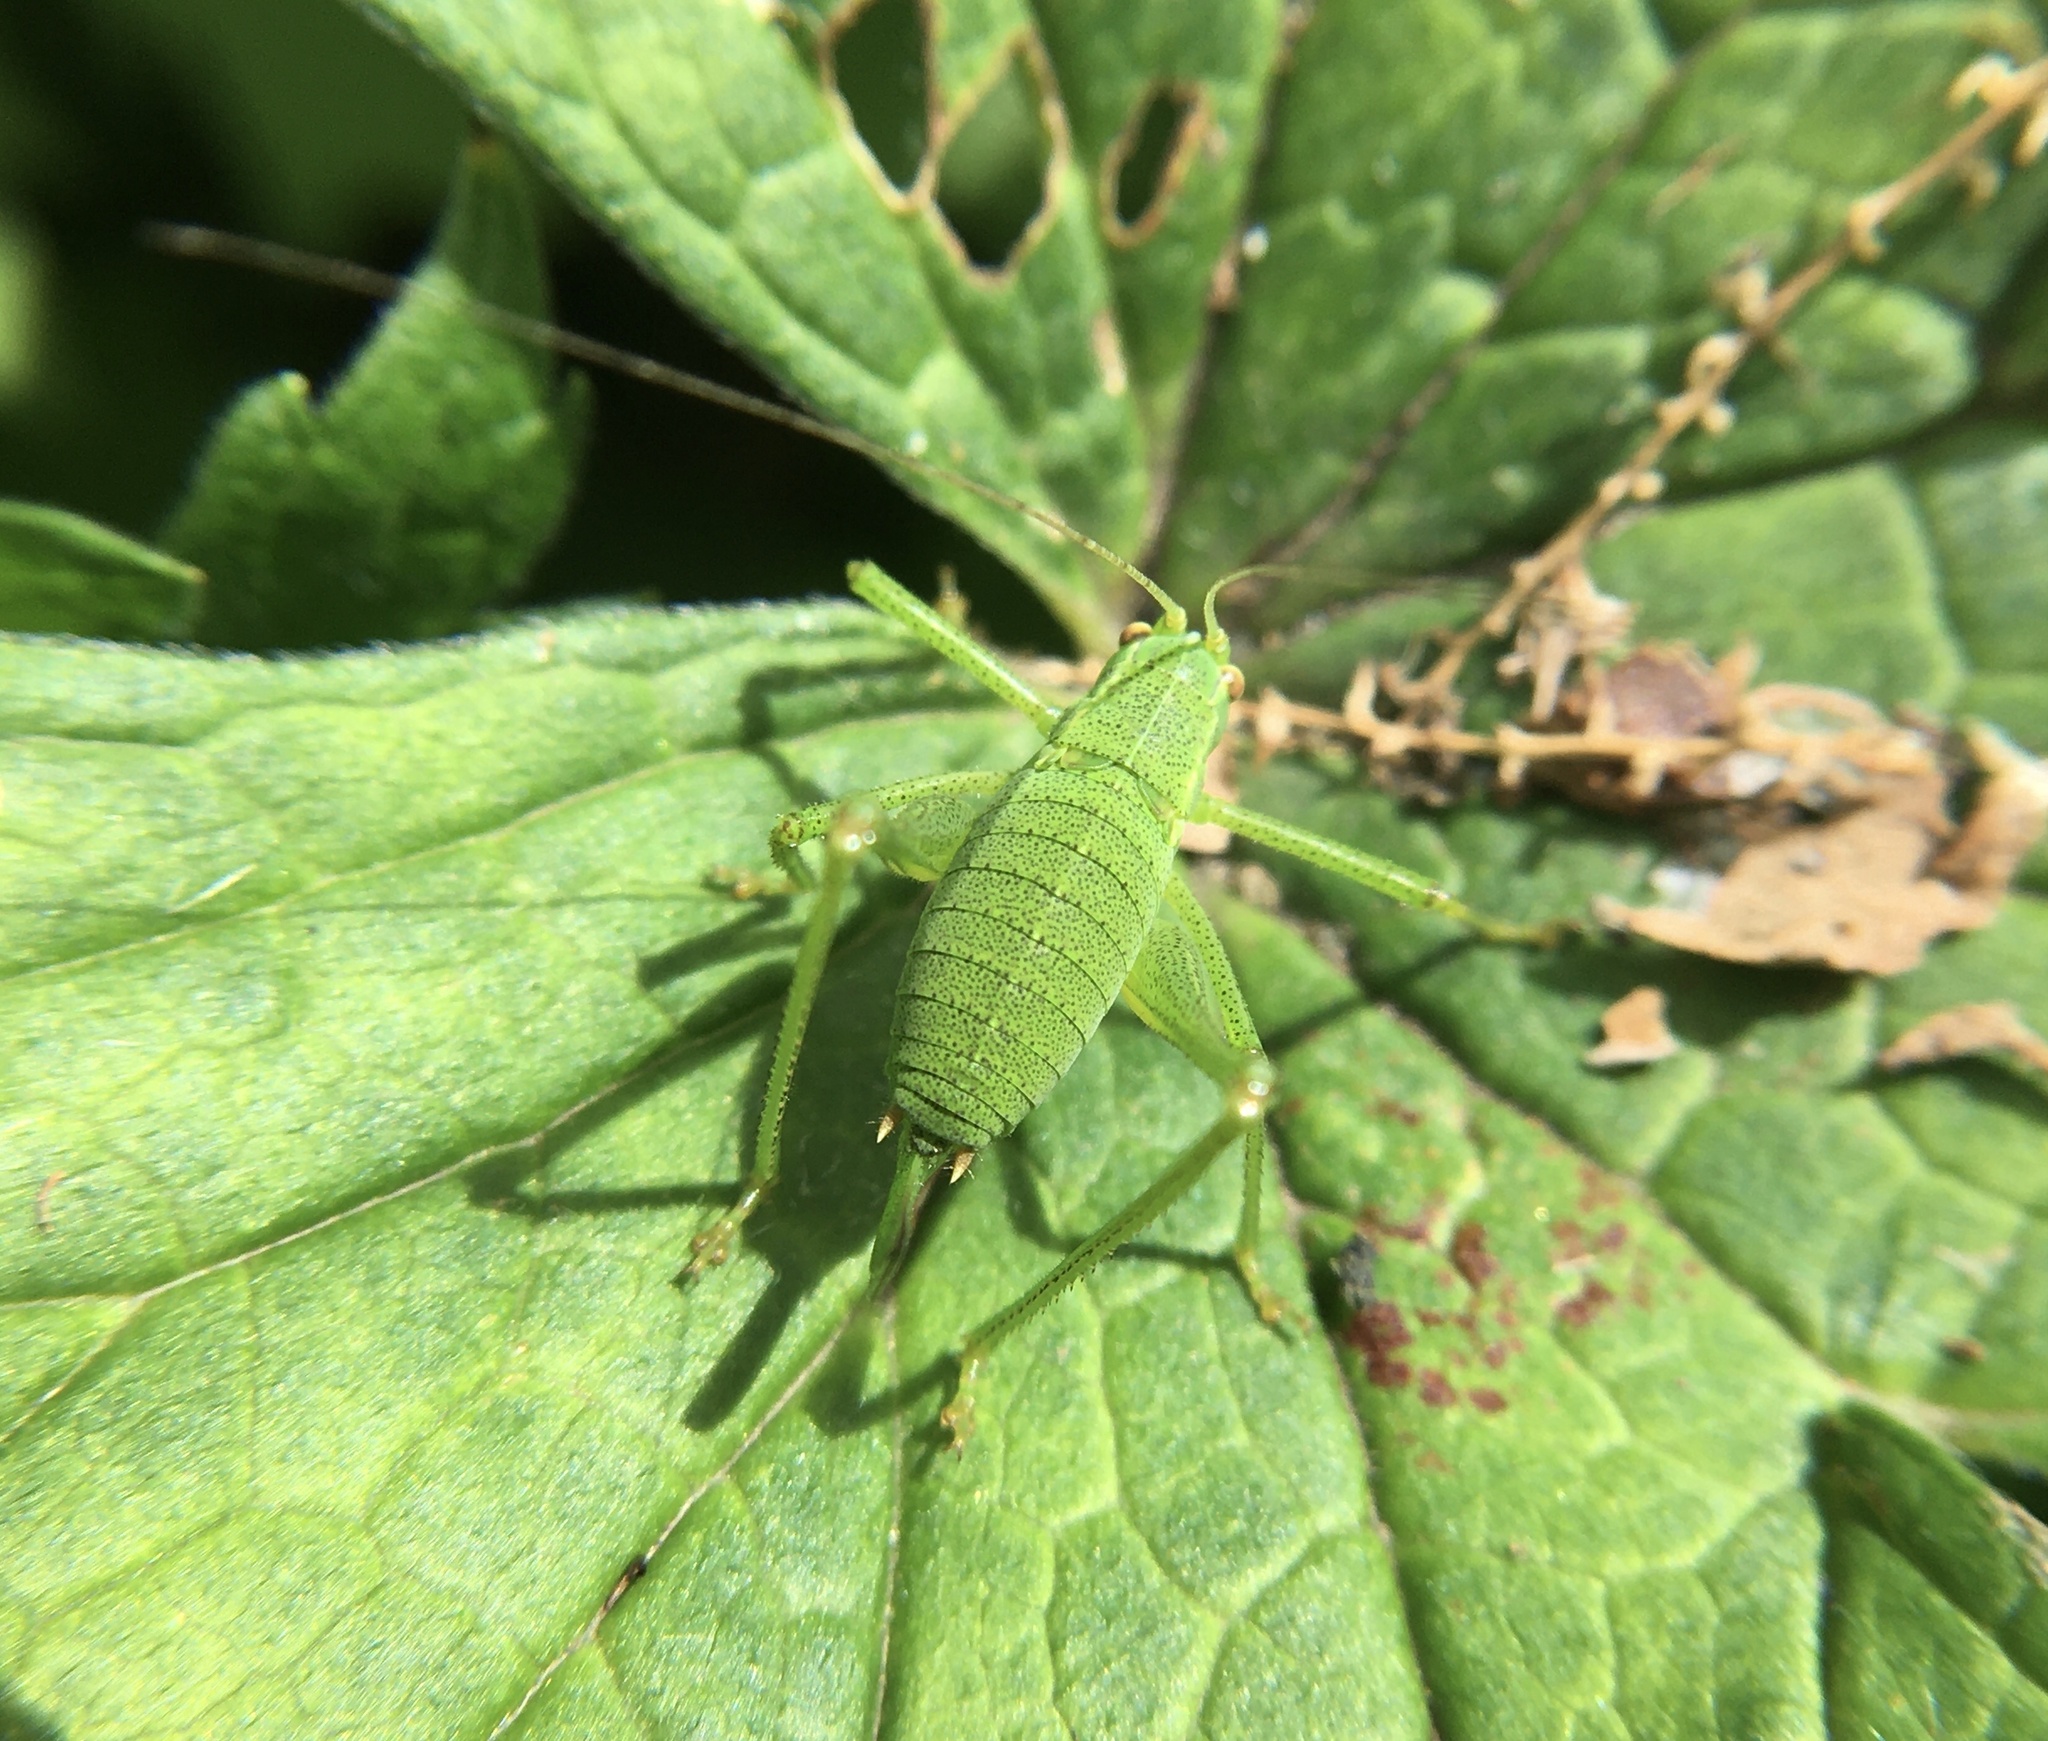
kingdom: Animalia
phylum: Arthropoda
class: Insecta
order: Orthoptera
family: Tettigoniidae
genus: Leptophyes
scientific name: Leptophyes punctatissima
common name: Speckled bush-cricket
